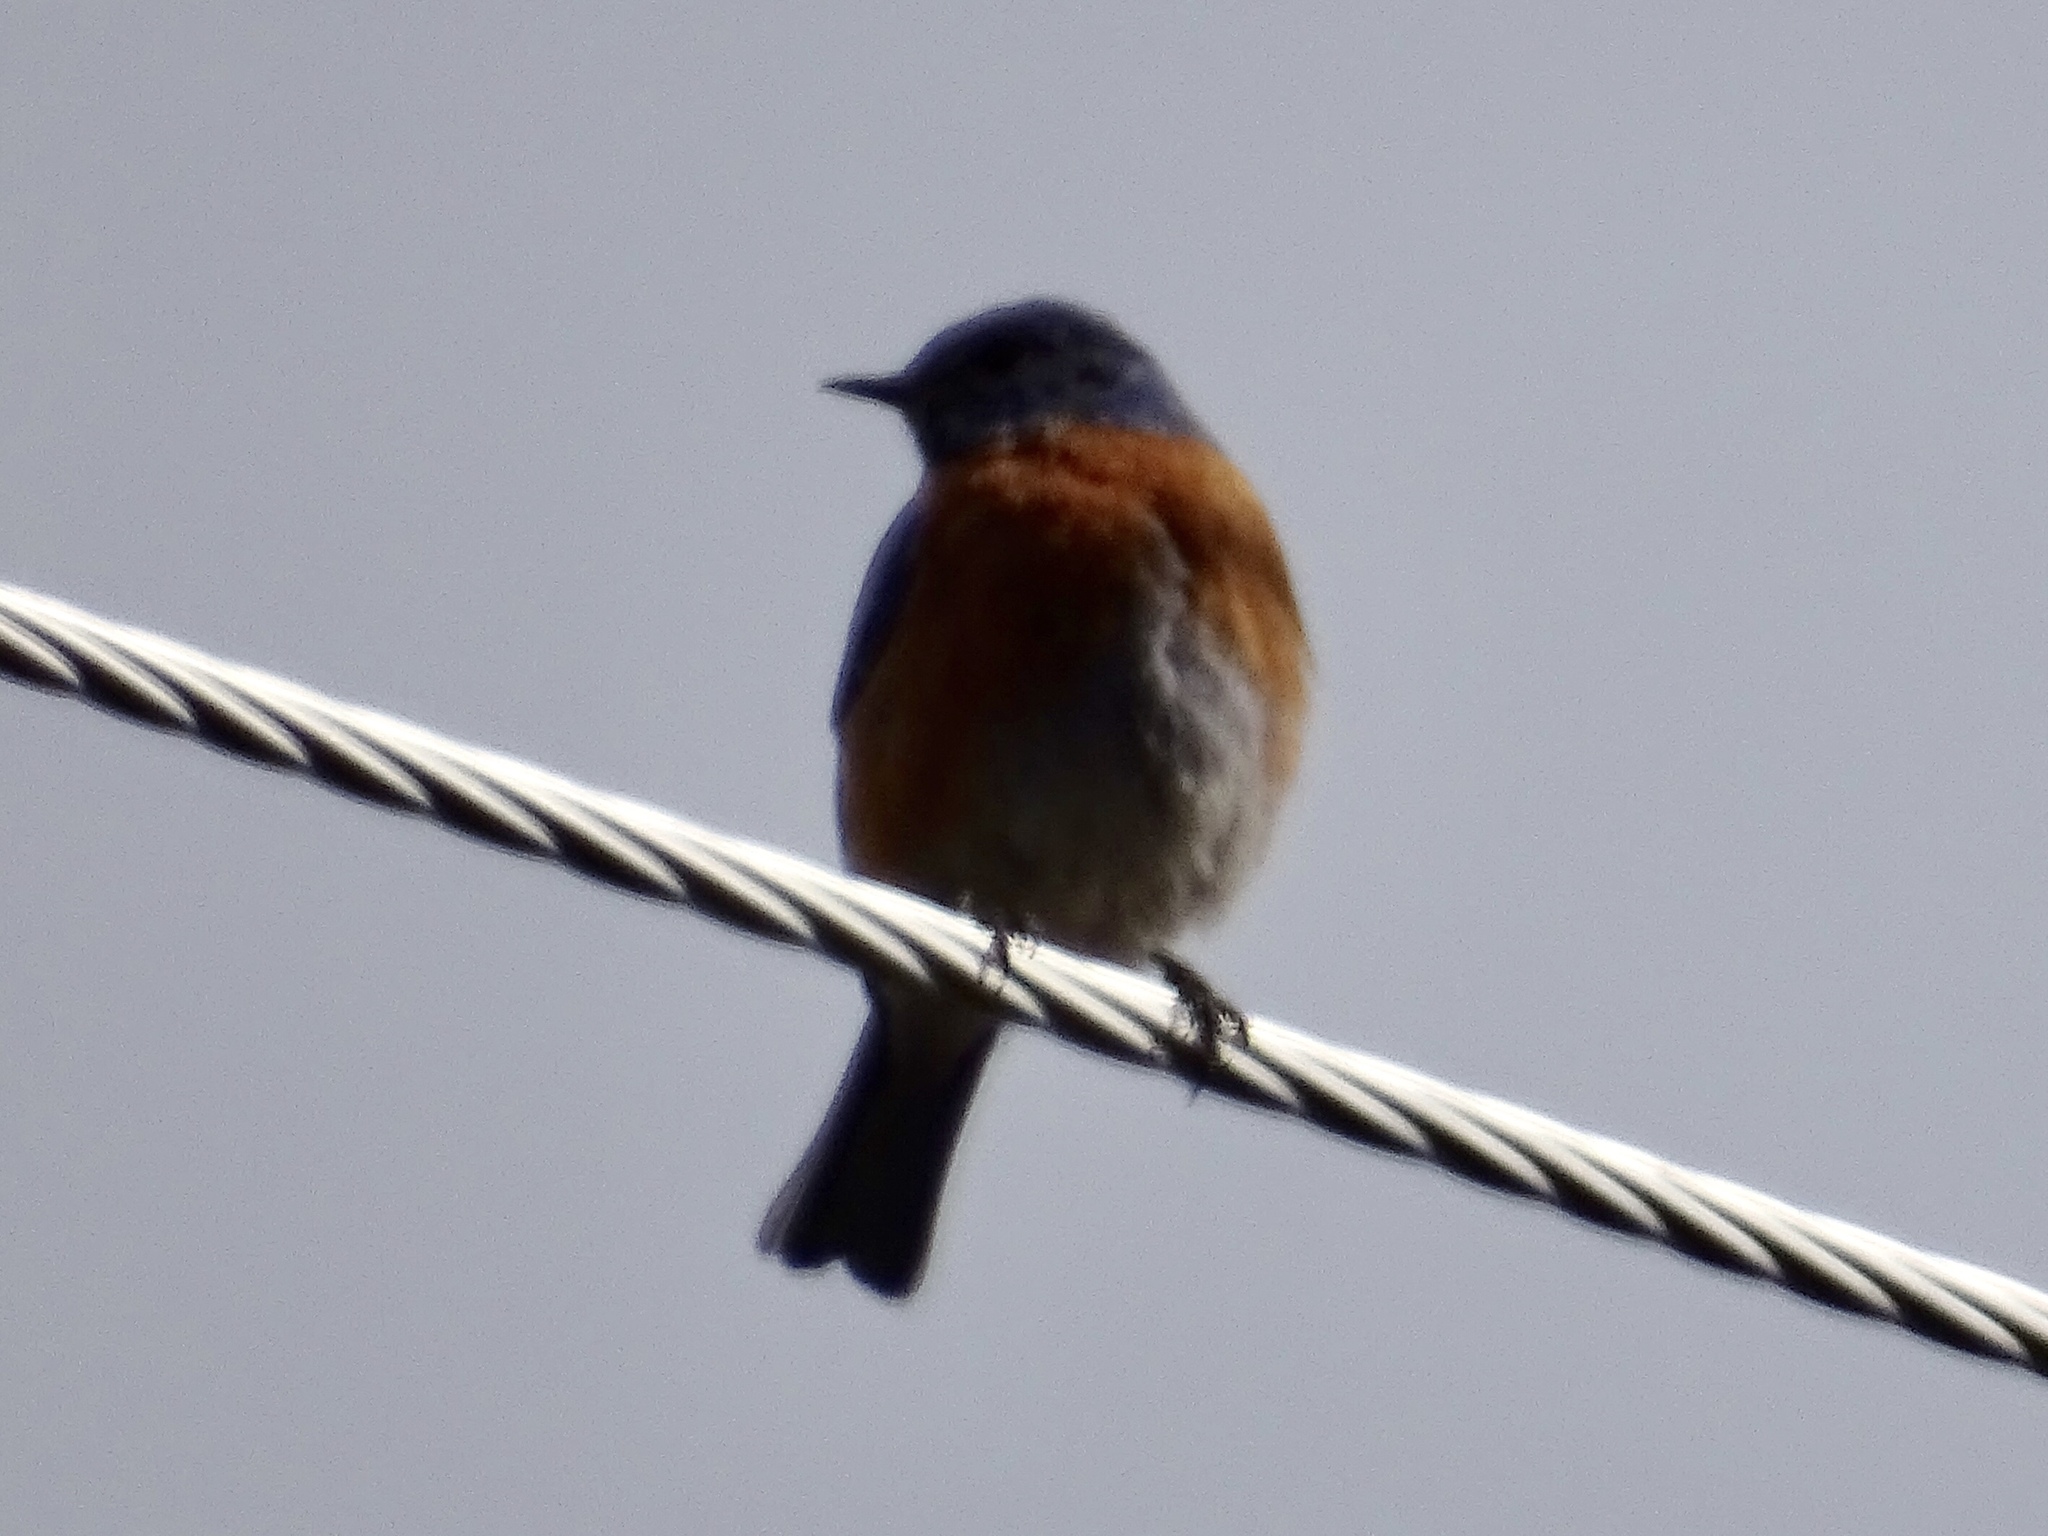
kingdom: Animalia
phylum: Chordata
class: Aves
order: Passeriformes
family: Turdidae
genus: Sialia
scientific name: Sialia mexicana
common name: Western bluebird
